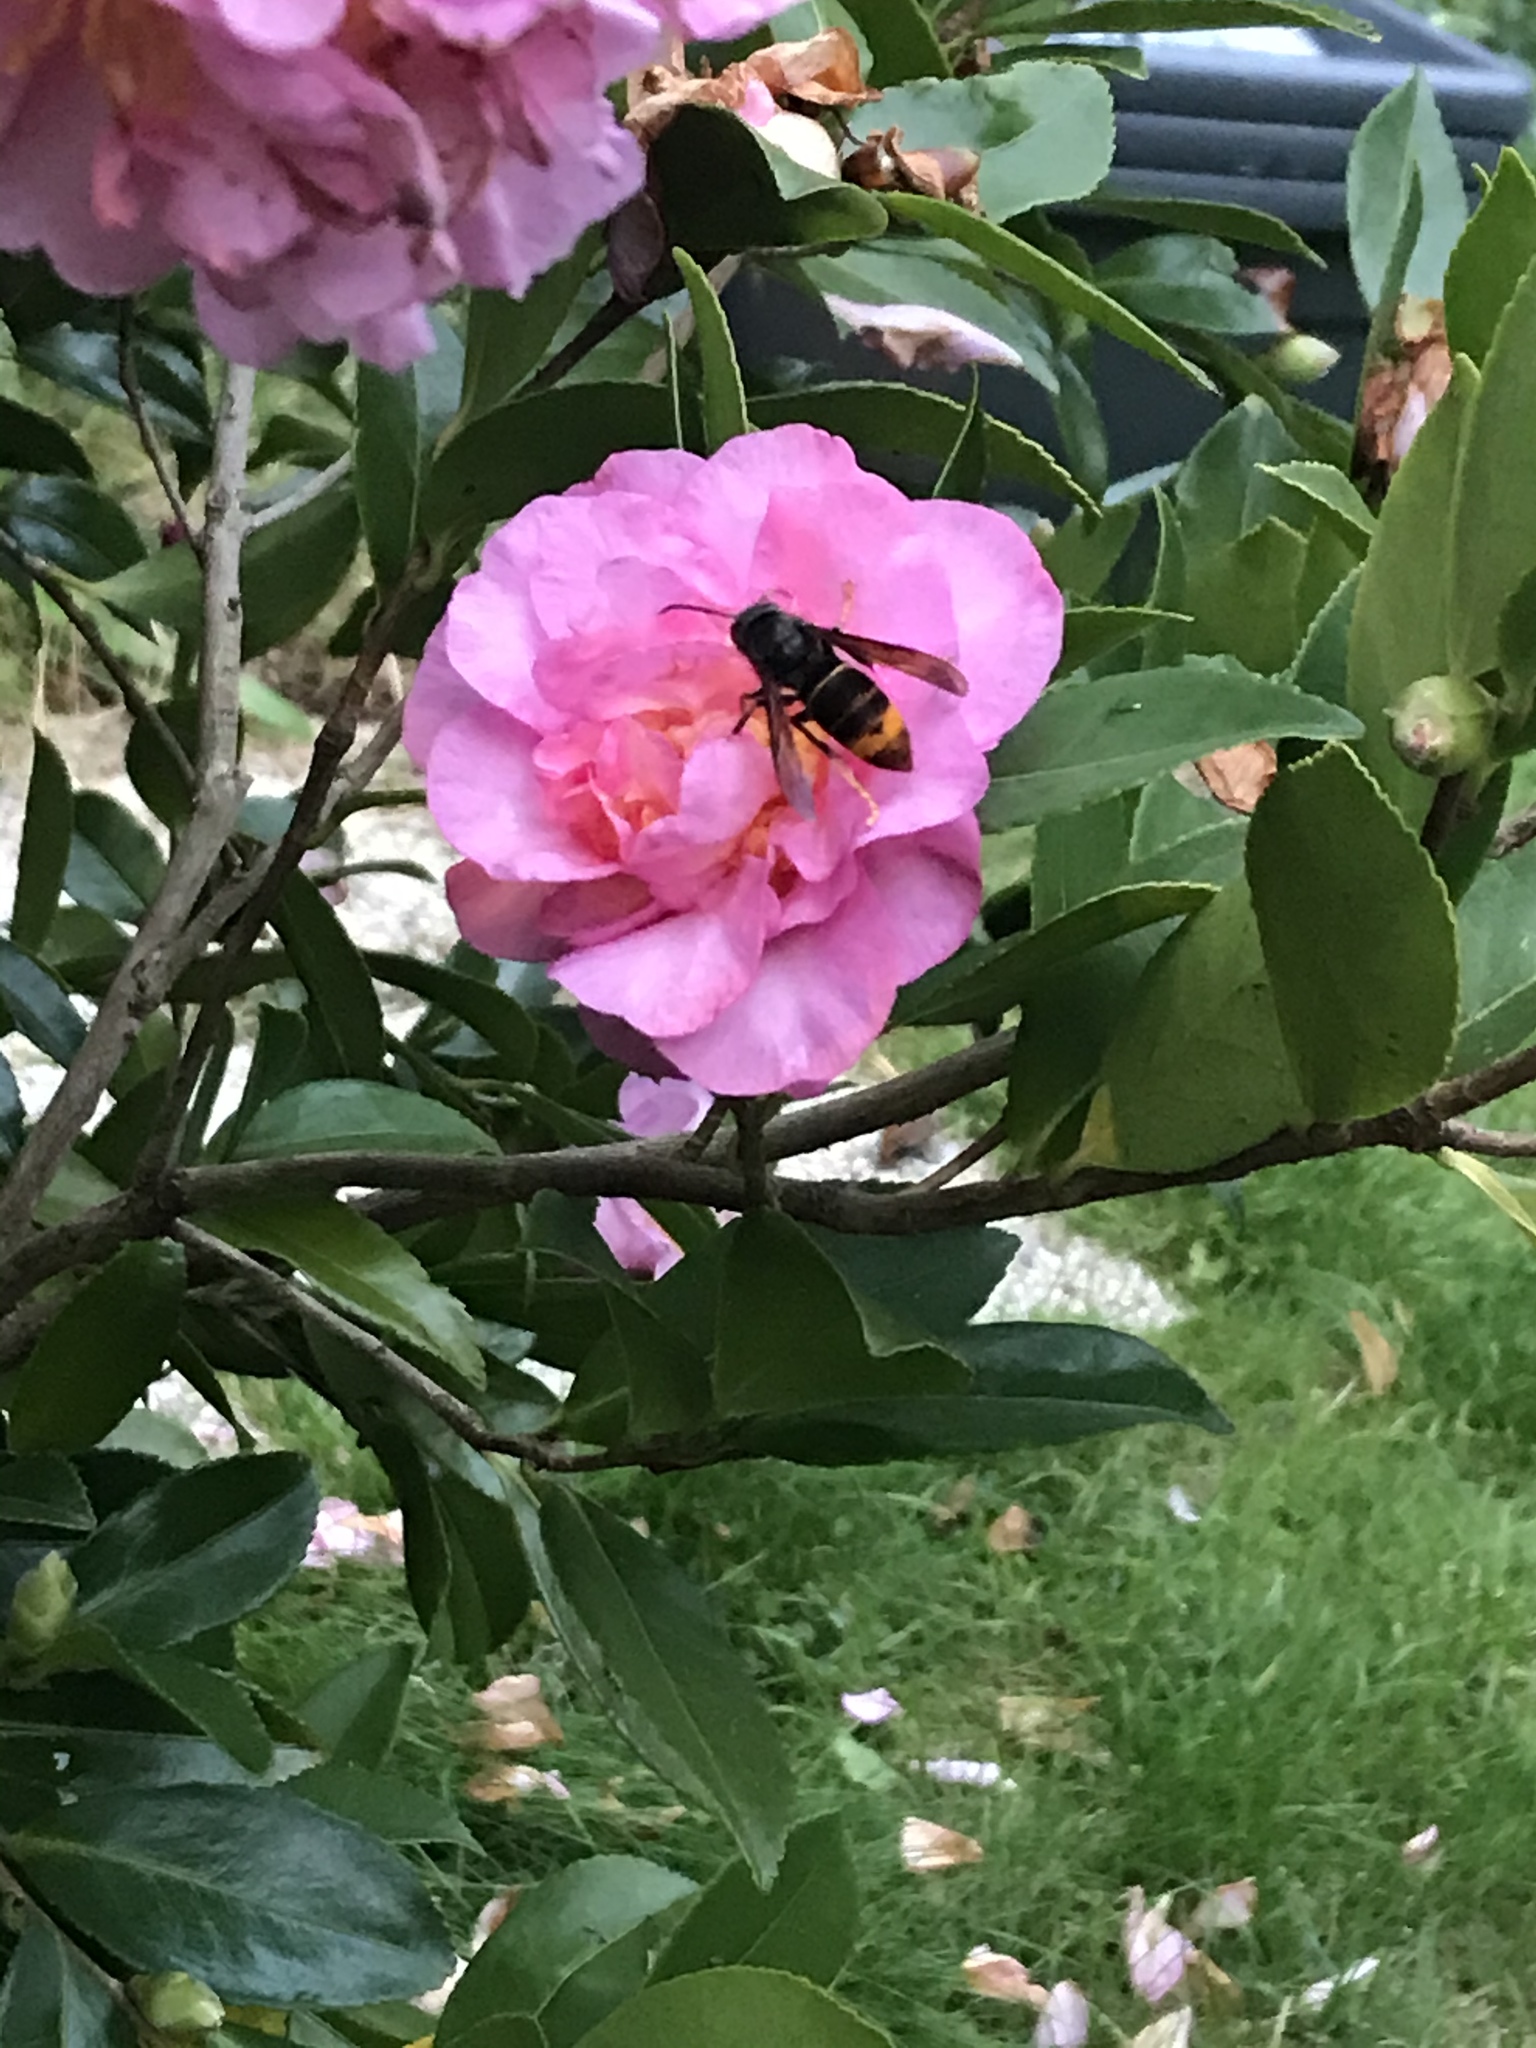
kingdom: Animalia
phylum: Arthropoda
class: Insecta
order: Hymenoptera
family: Vespidae
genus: Vespa
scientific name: Vespa velutina
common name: Asian hornet
